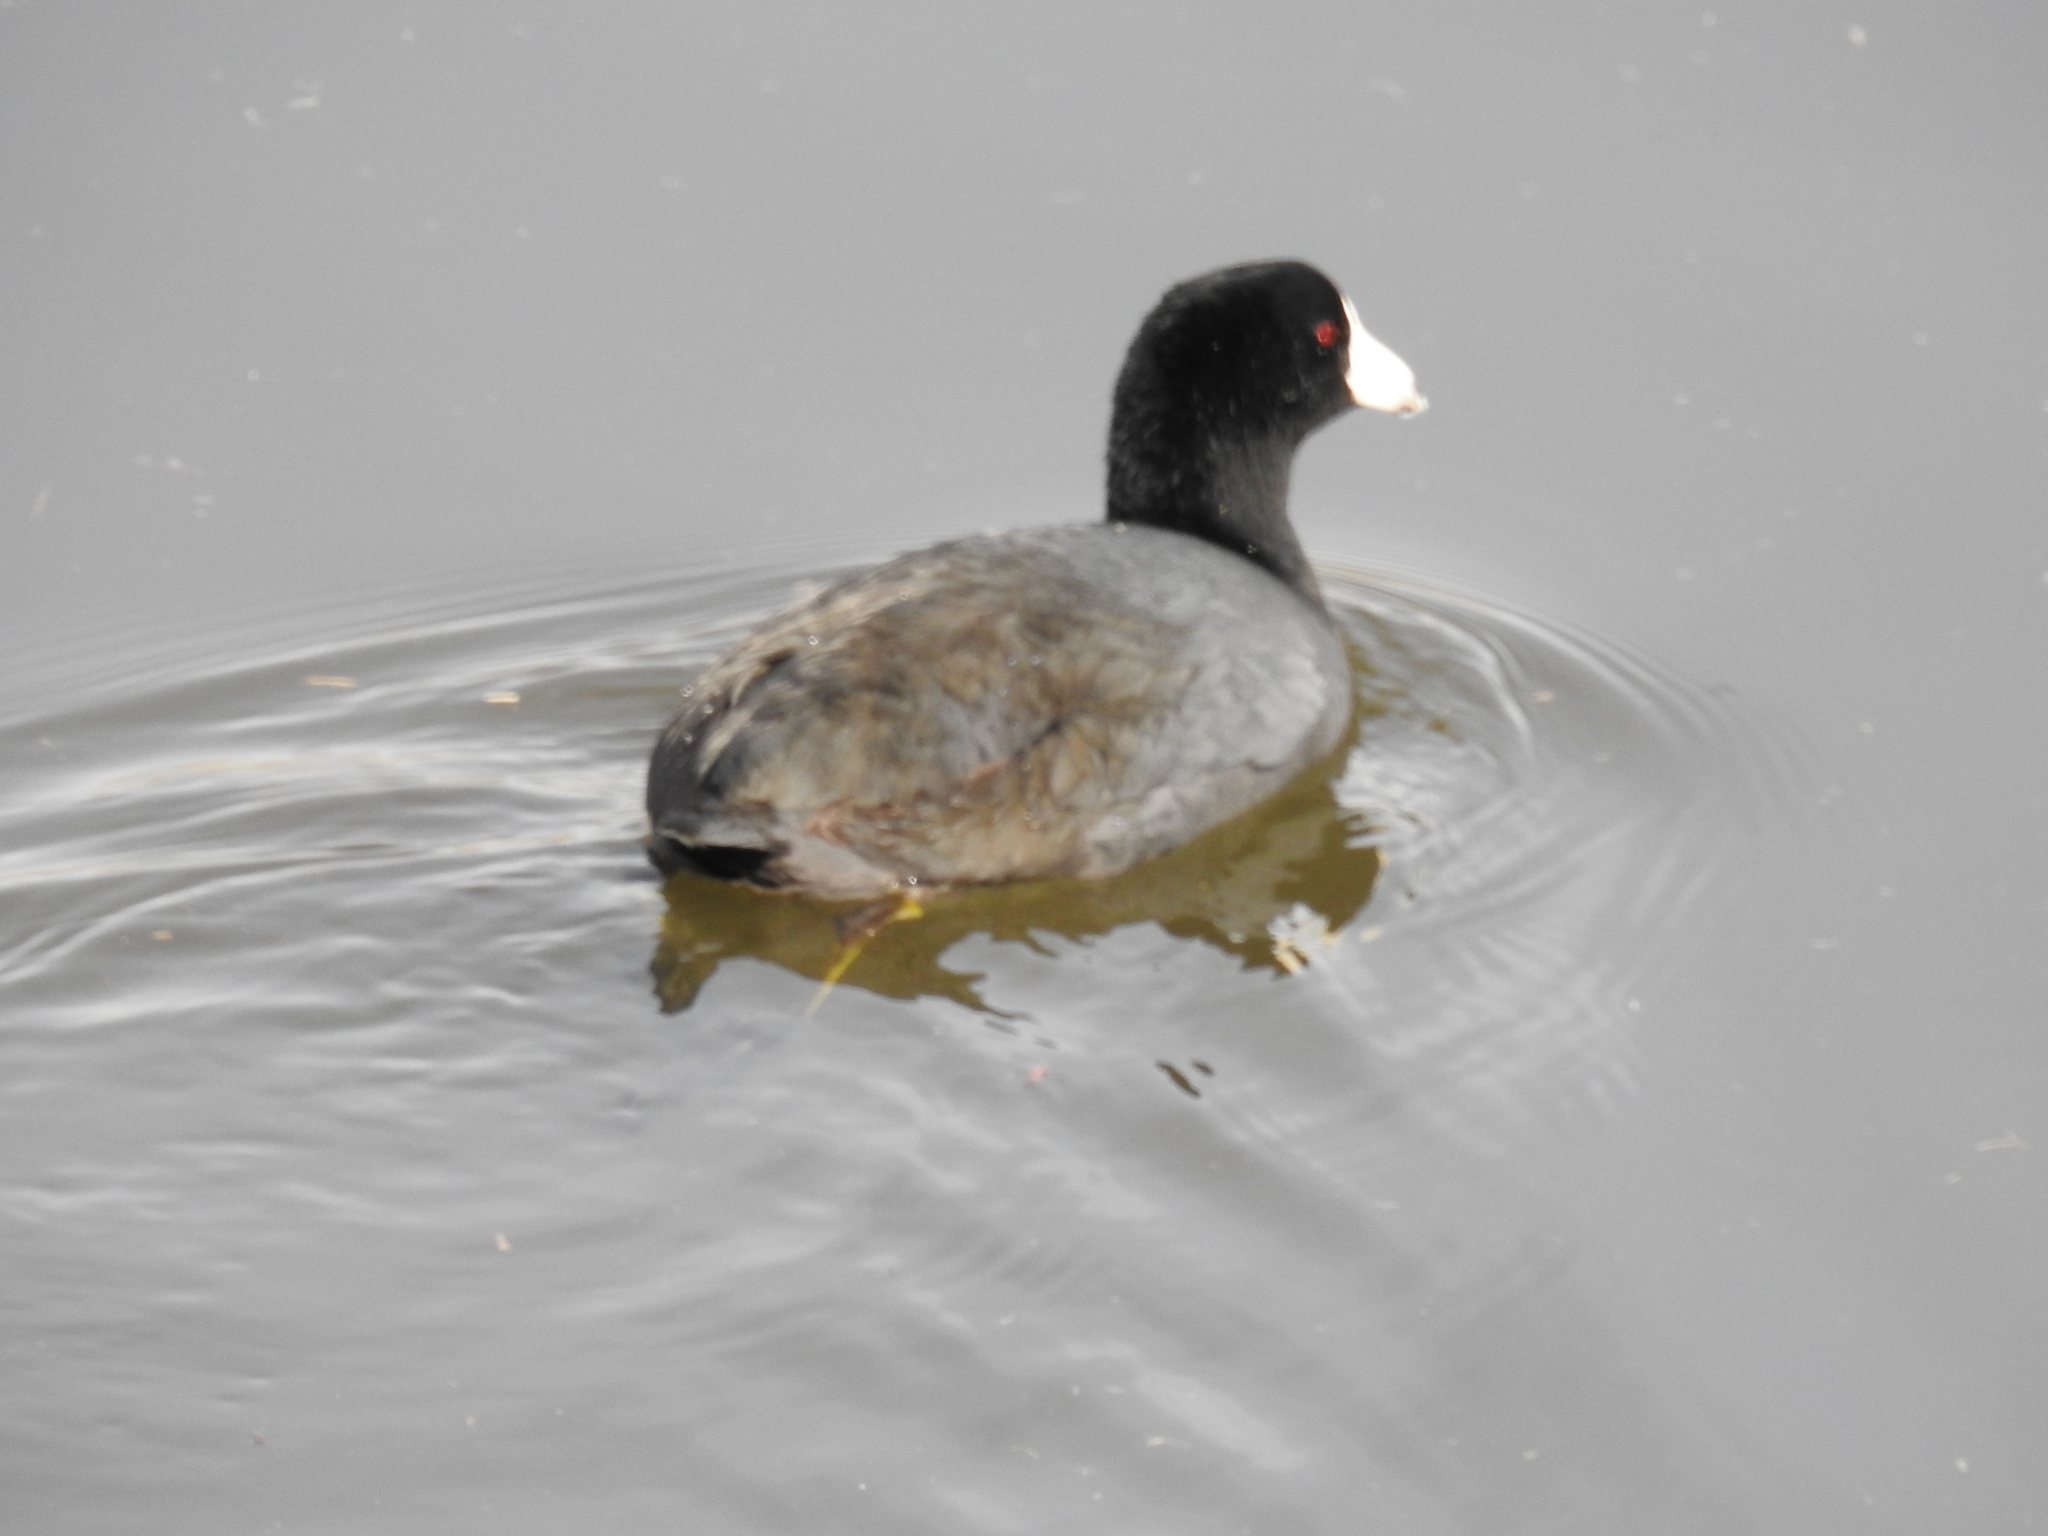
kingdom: Animalia
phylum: Chordata
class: Aves
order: Gruiformes
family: Rallidae
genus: Fulica
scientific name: Fulica americana
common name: American coot
